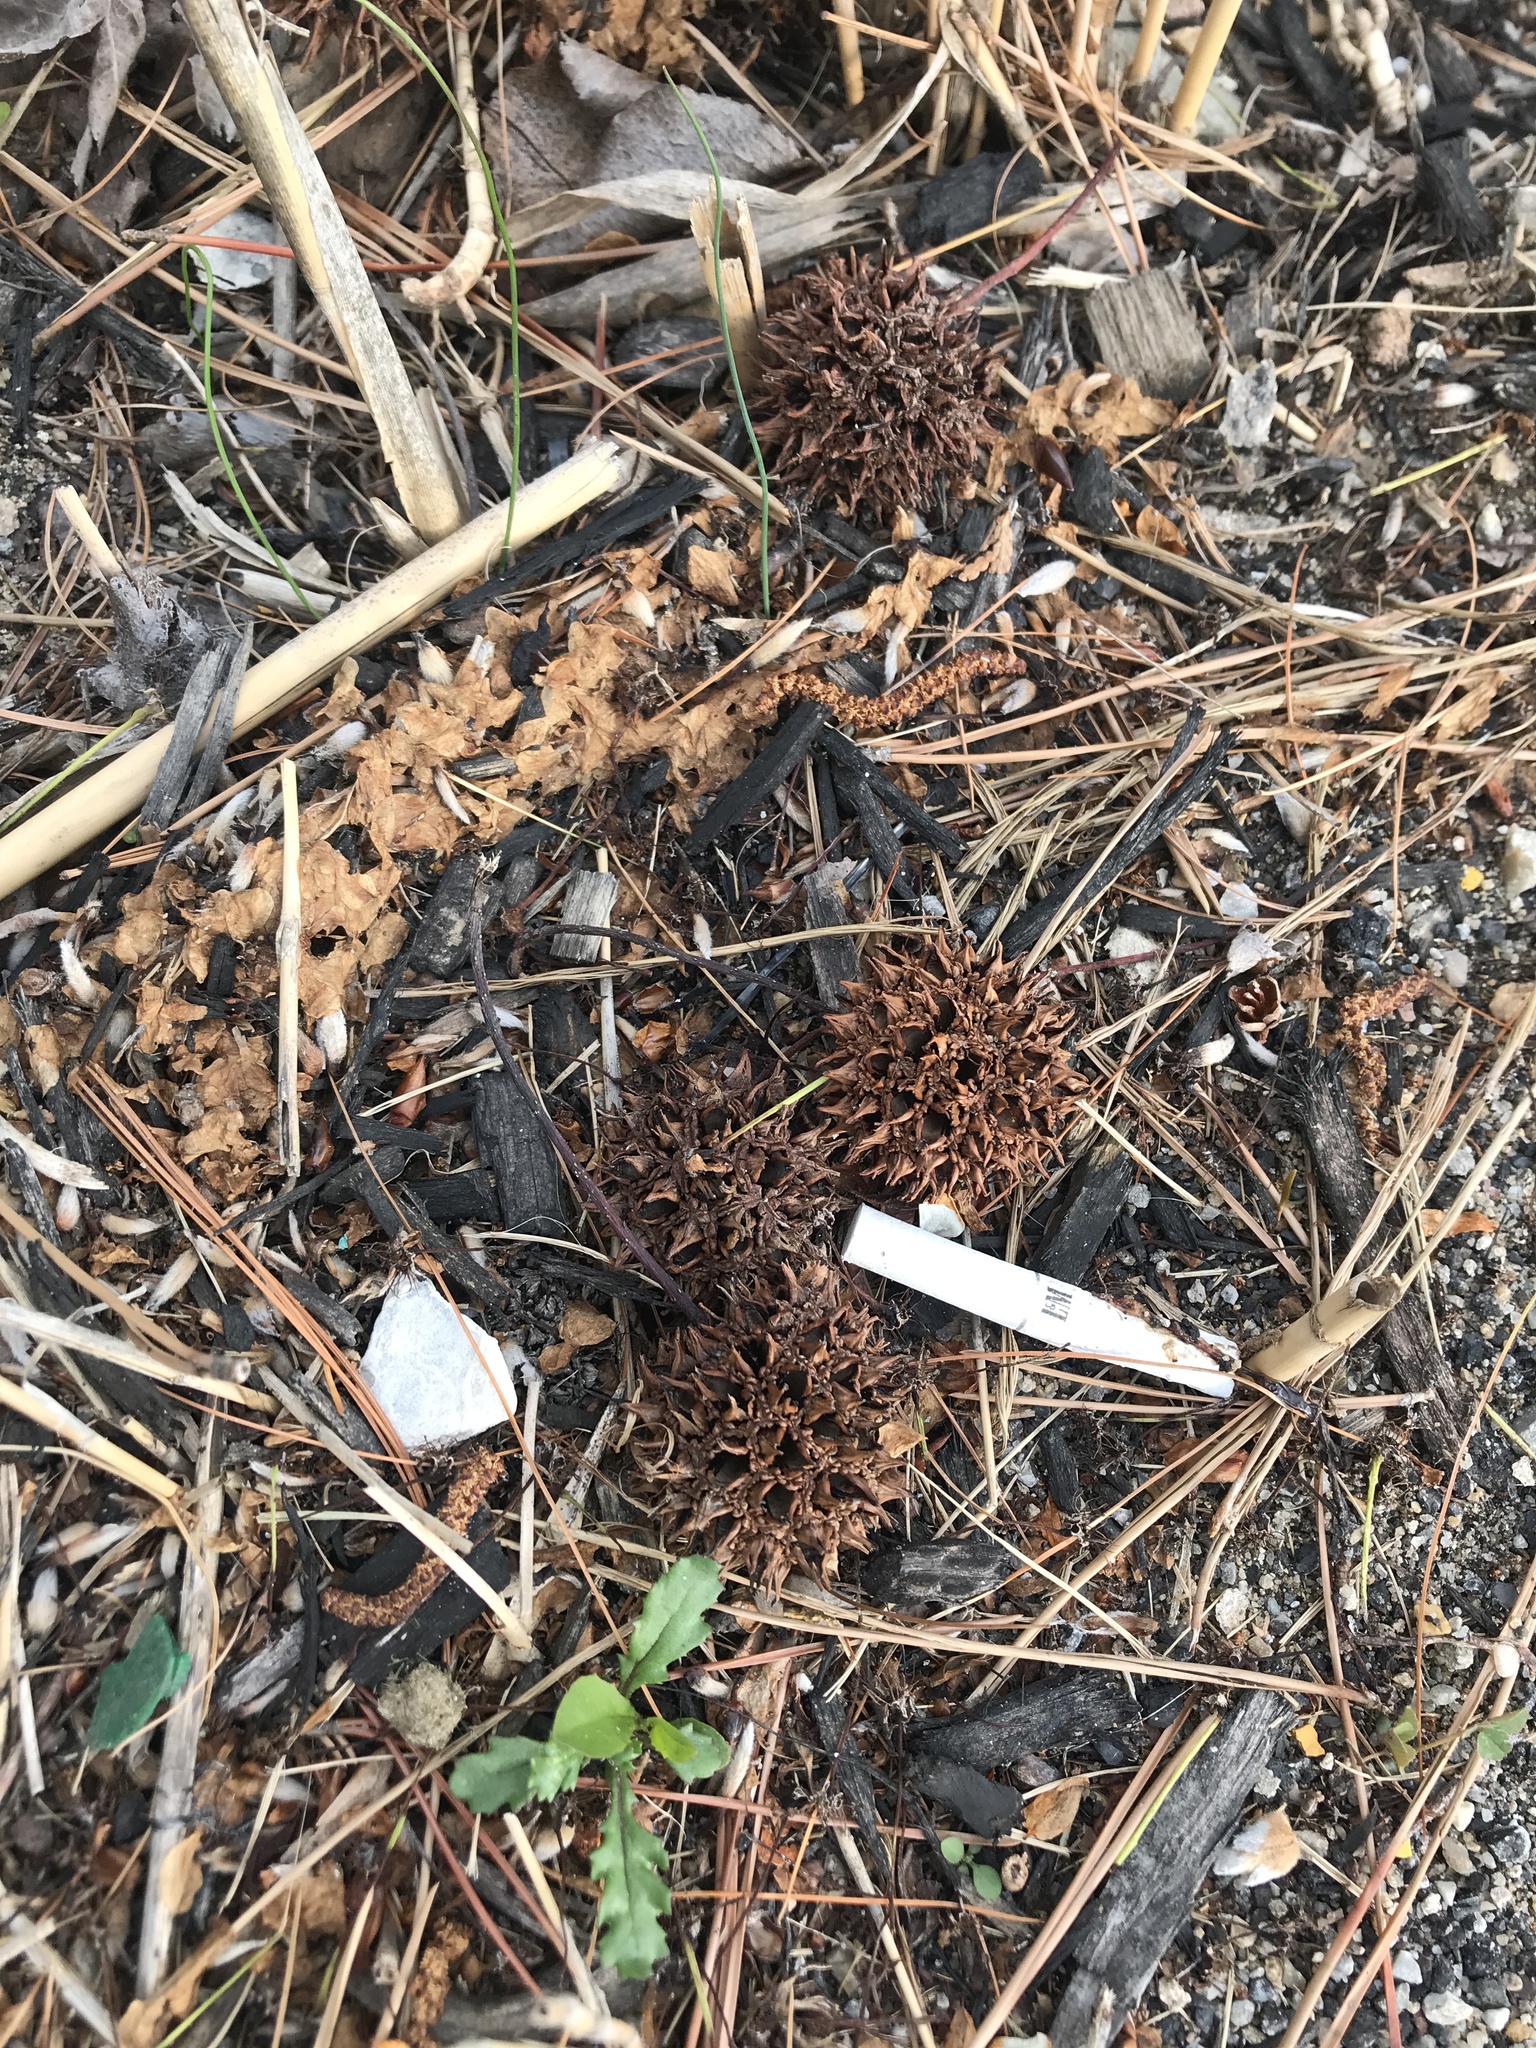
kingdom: Plantae
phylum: Tracheophyta
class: Magnoliopsida
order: Saxifragales
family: Altingiaceae
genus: Liquidambar
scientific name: Liquidambar styraciflua
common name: Sweet gum
